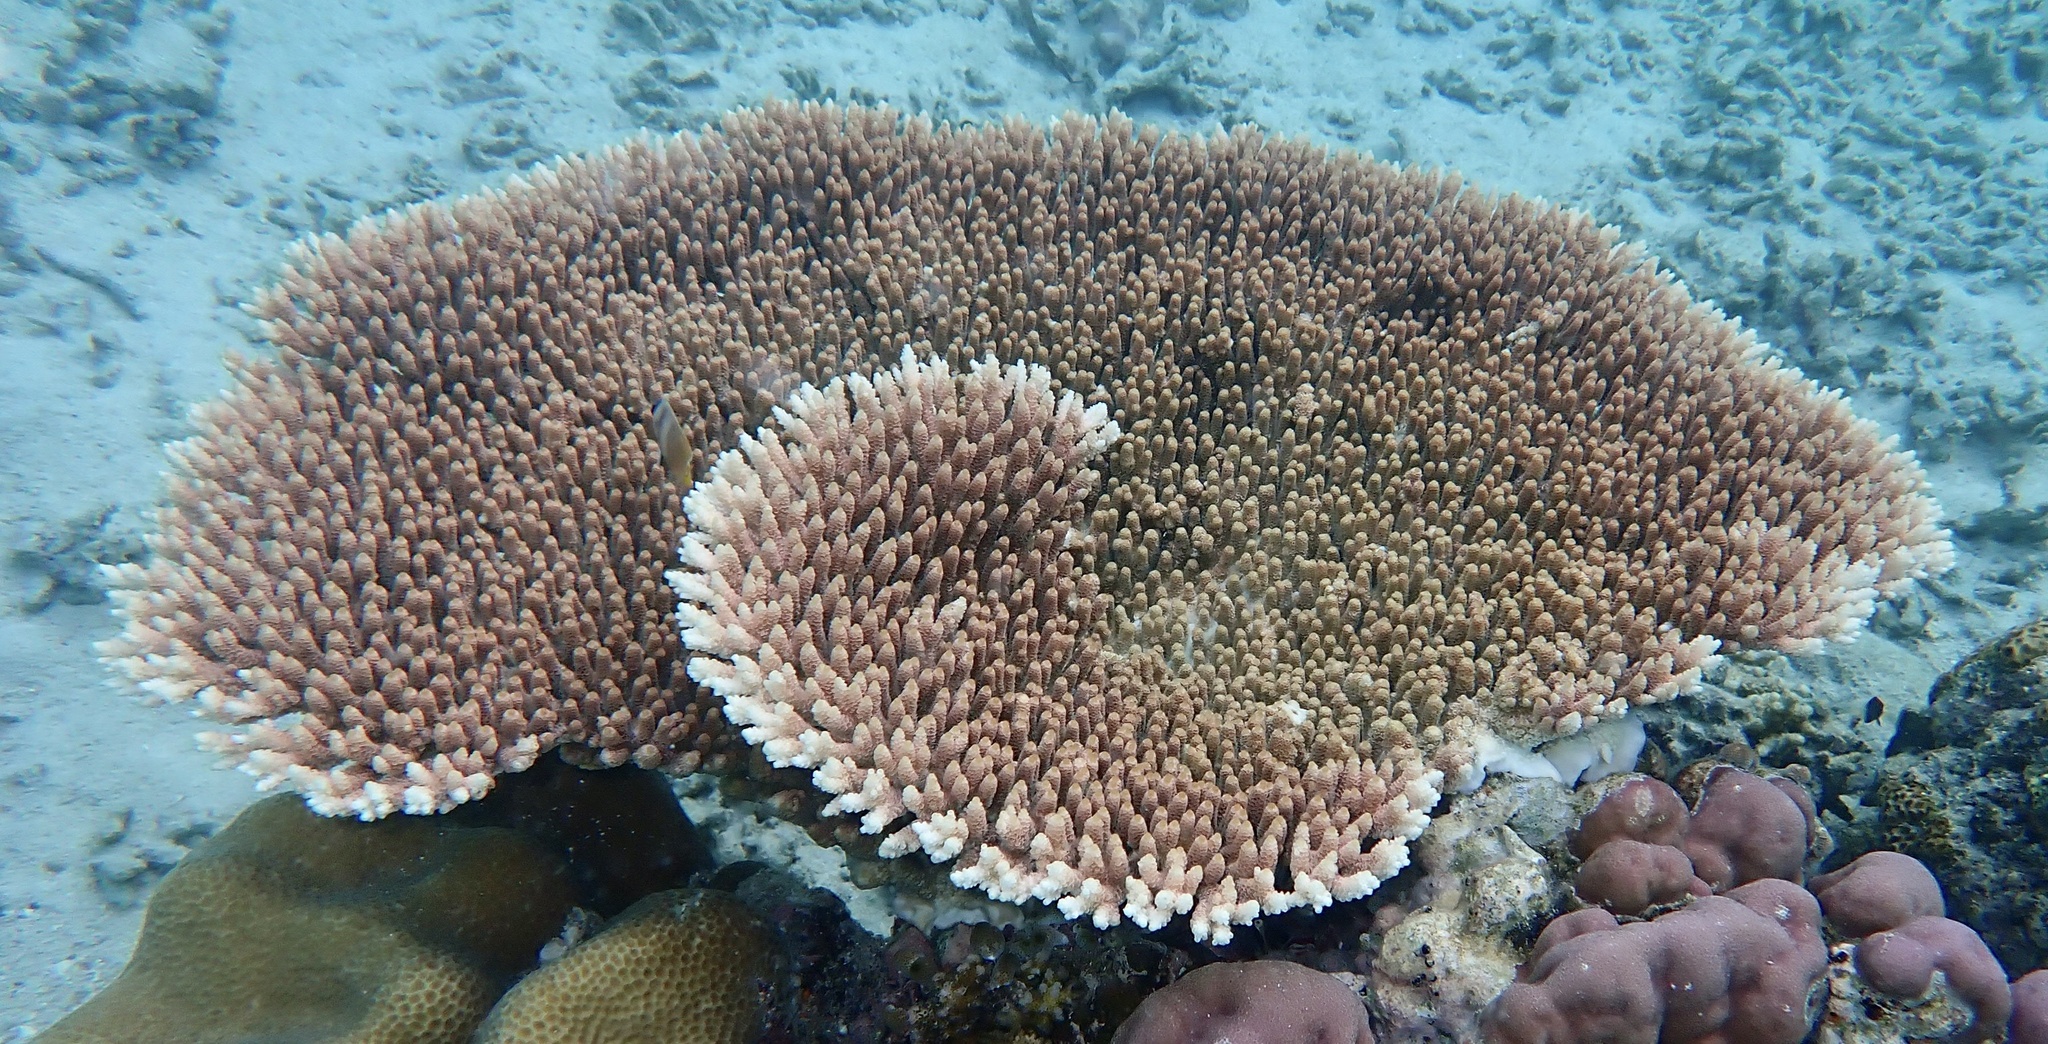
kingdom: Animalia
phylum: Cnidaria
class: Anthozoa
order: Scleractinia
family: Acroporidae
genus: Acropora
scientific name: Acropora millepora
